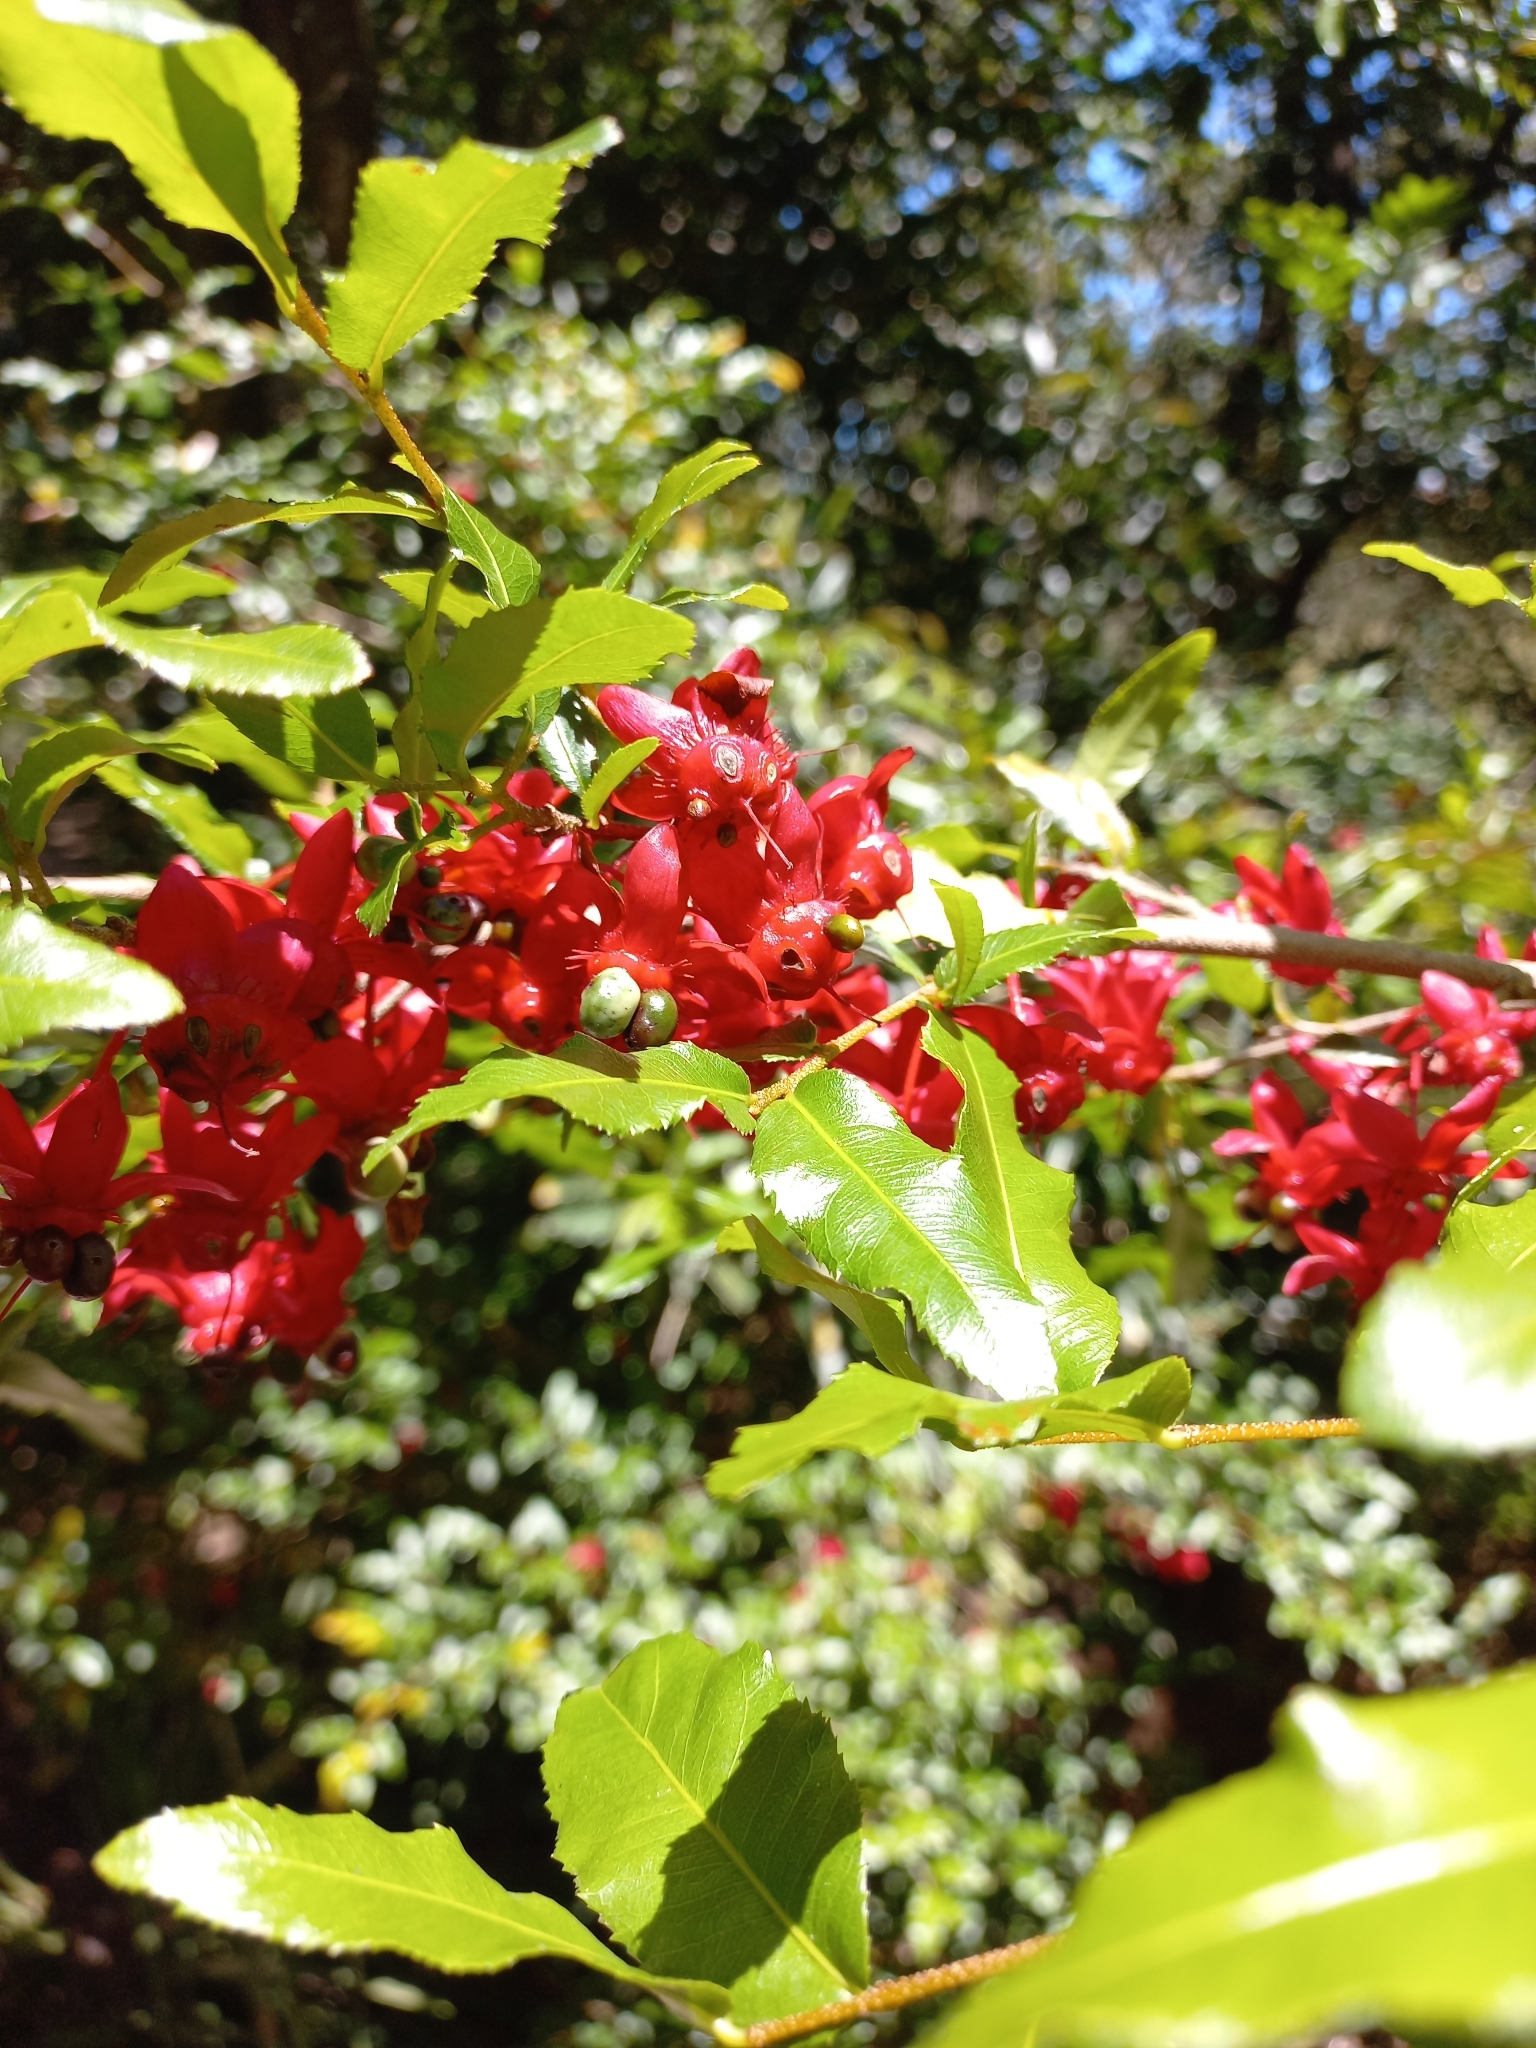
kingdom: Plantae
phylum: Tracheophyta
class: Magnoliopsida
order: Malpighiales
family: Ochnaceae
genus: Ochna
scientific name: Ochna serrulata
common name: Mickey mouse plant
